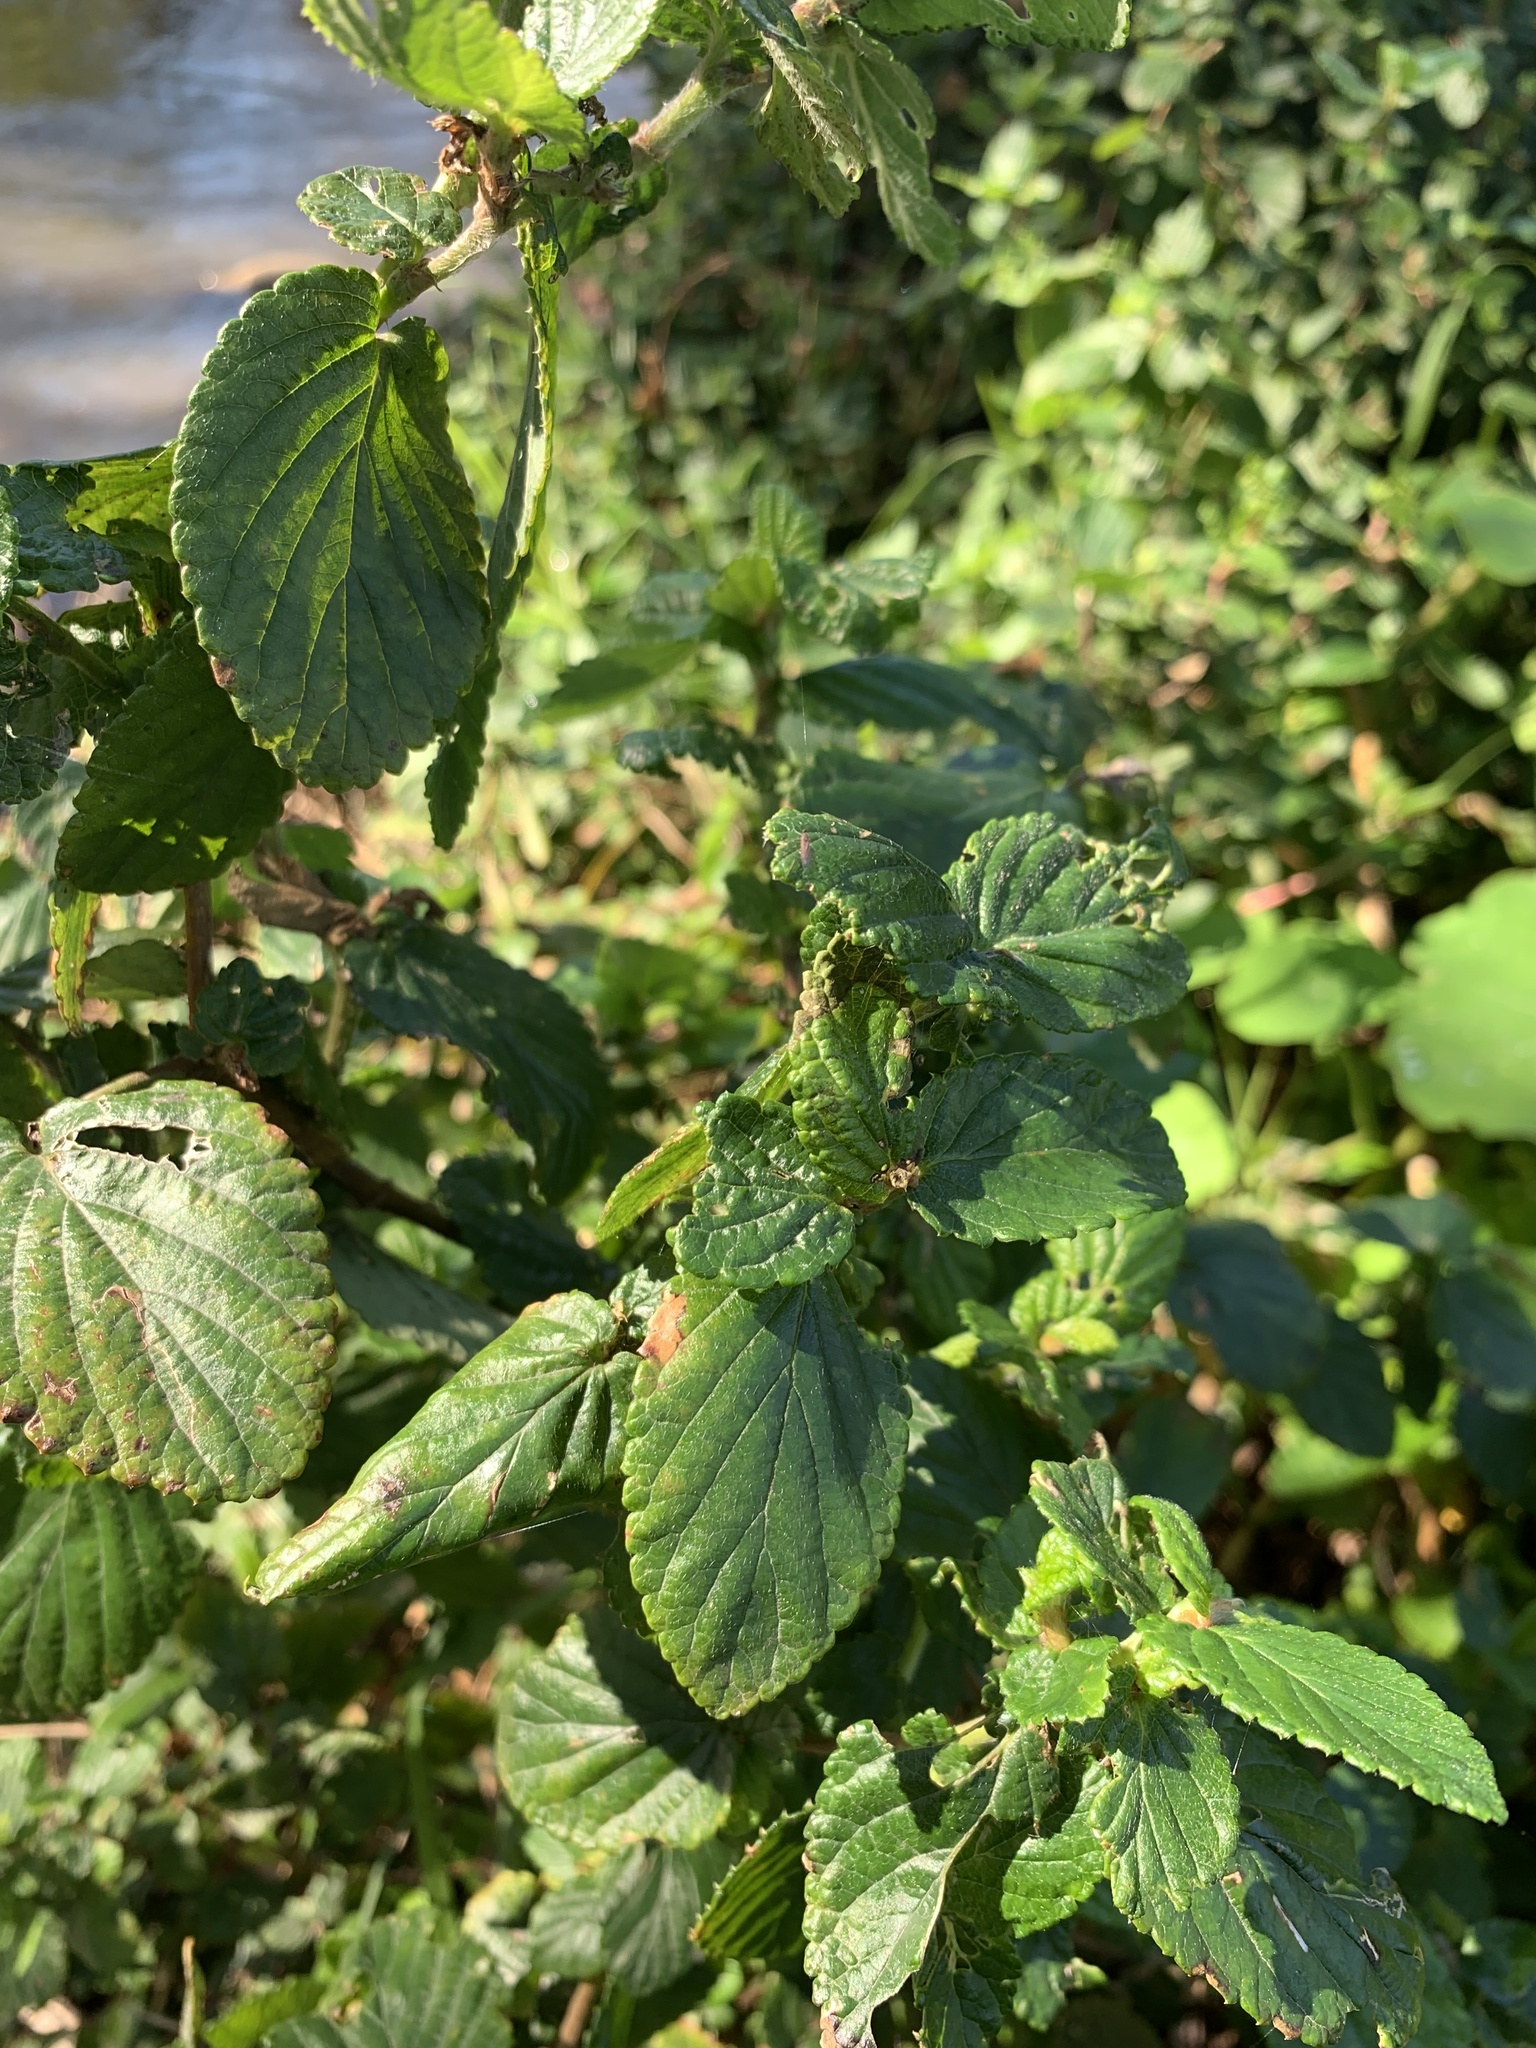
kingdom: Plantae
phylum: Tracheophyta
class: Magnoliopsida
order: Rosales
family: Rosaceae
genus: Cliffortia
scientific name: Cliffortia odorata
